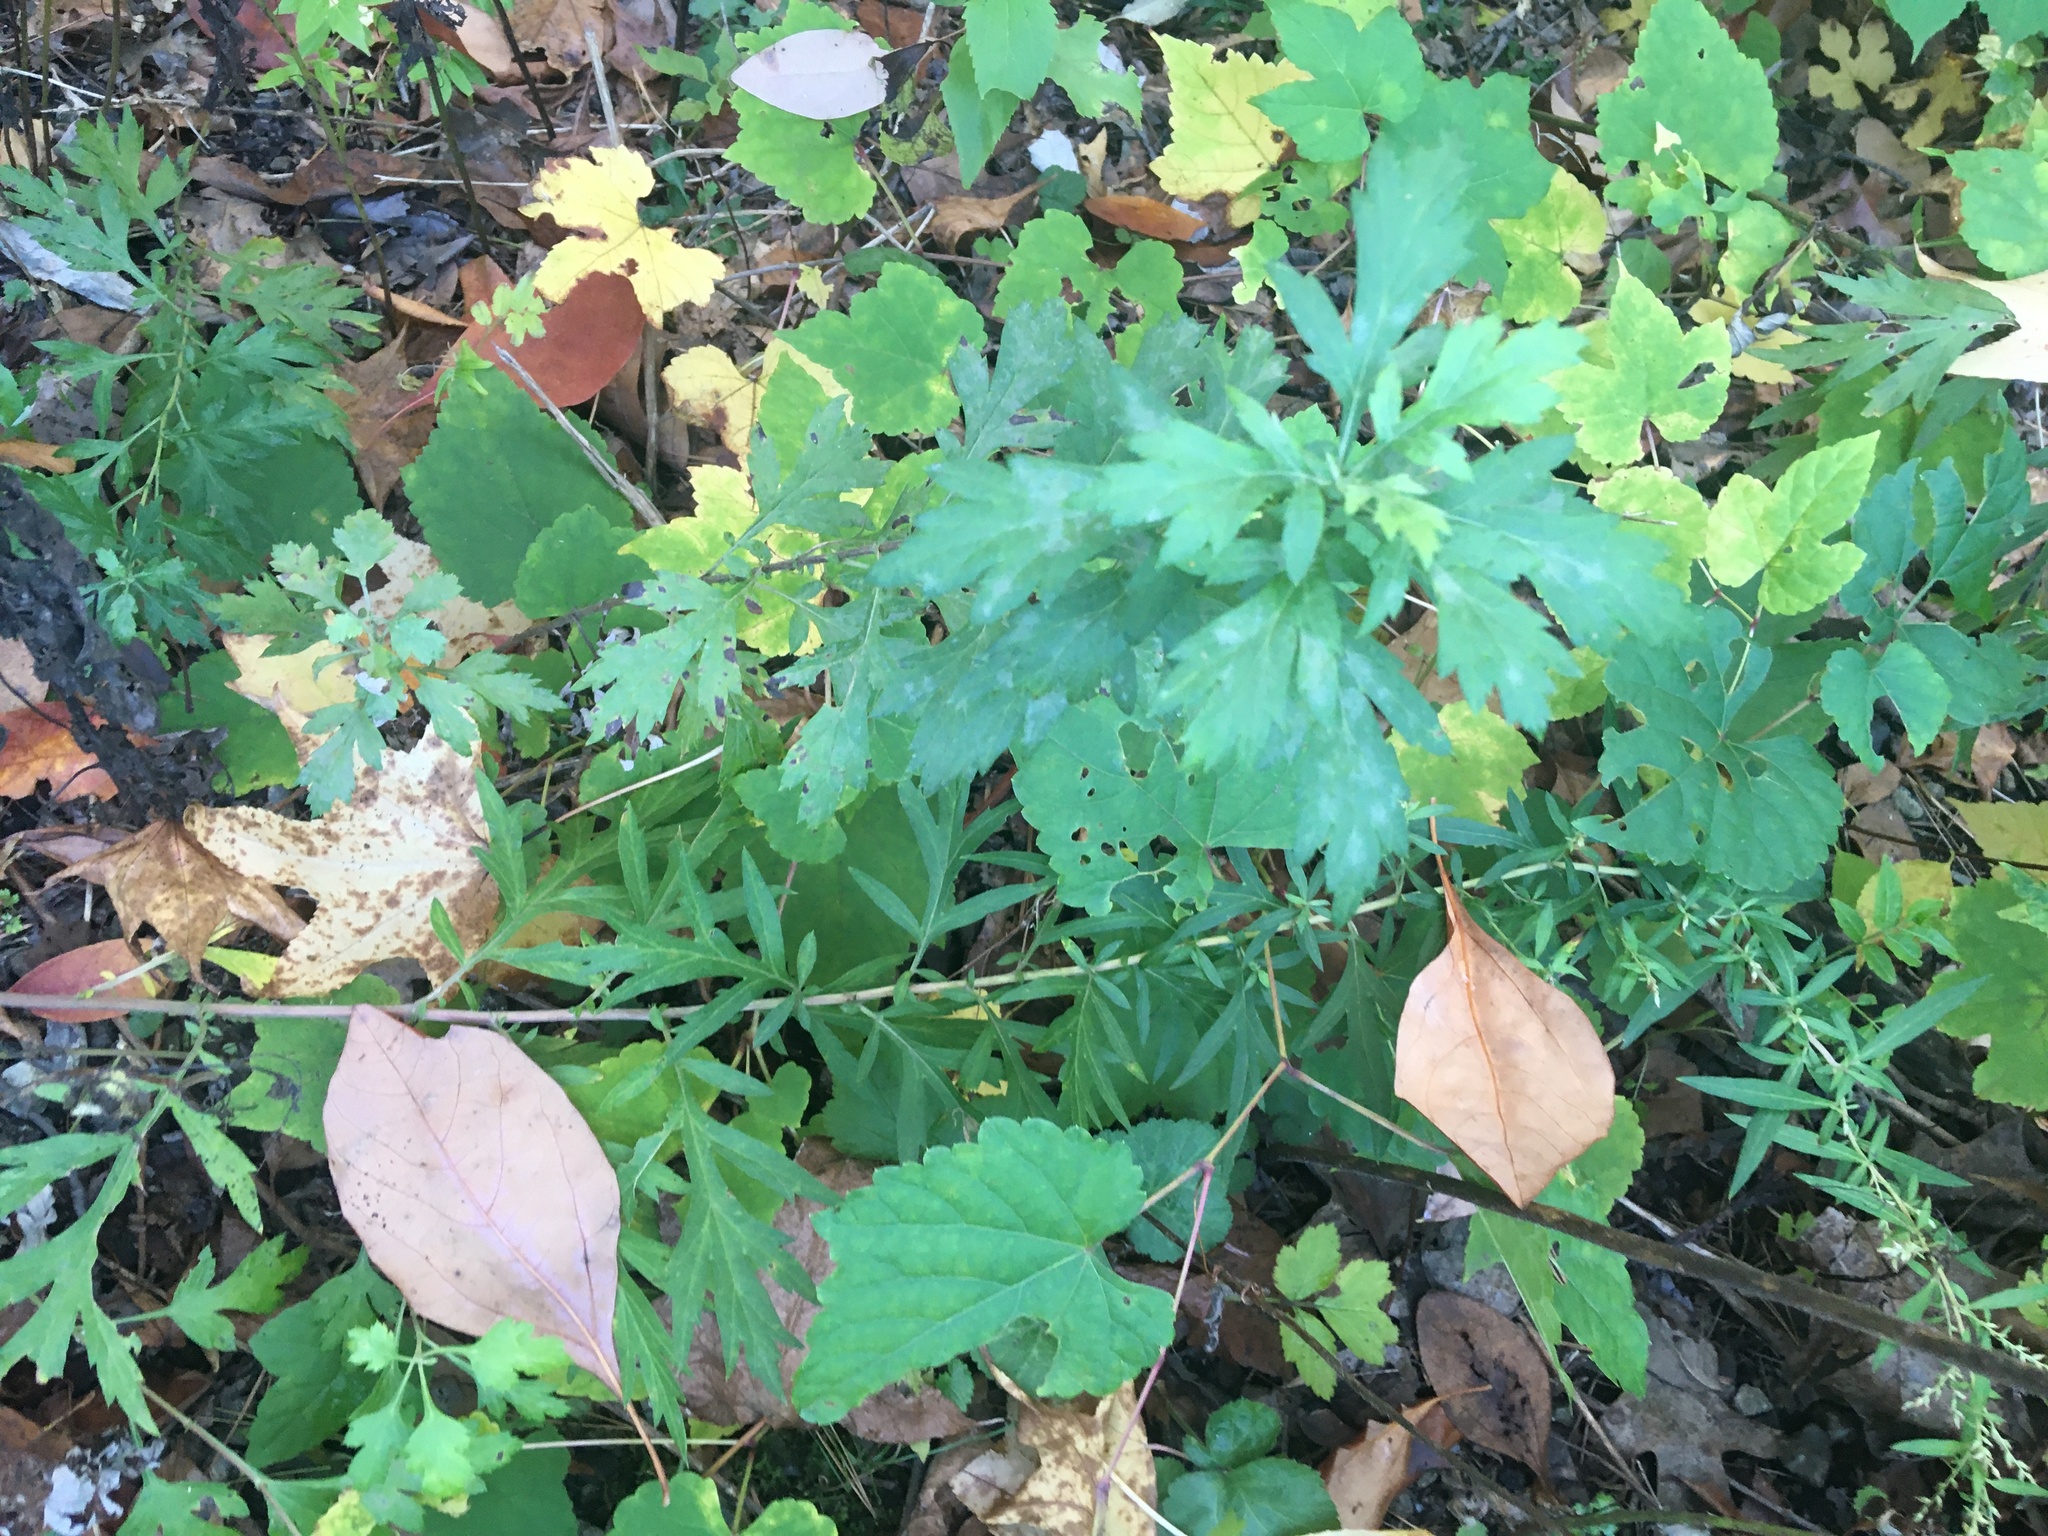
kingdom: Plantae
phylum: Tracheophyta
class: Magnoliopsida
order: Asterales
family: Asteraceae
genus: Artemisia
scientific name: Artemisia vulgaris
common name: Mugwort
